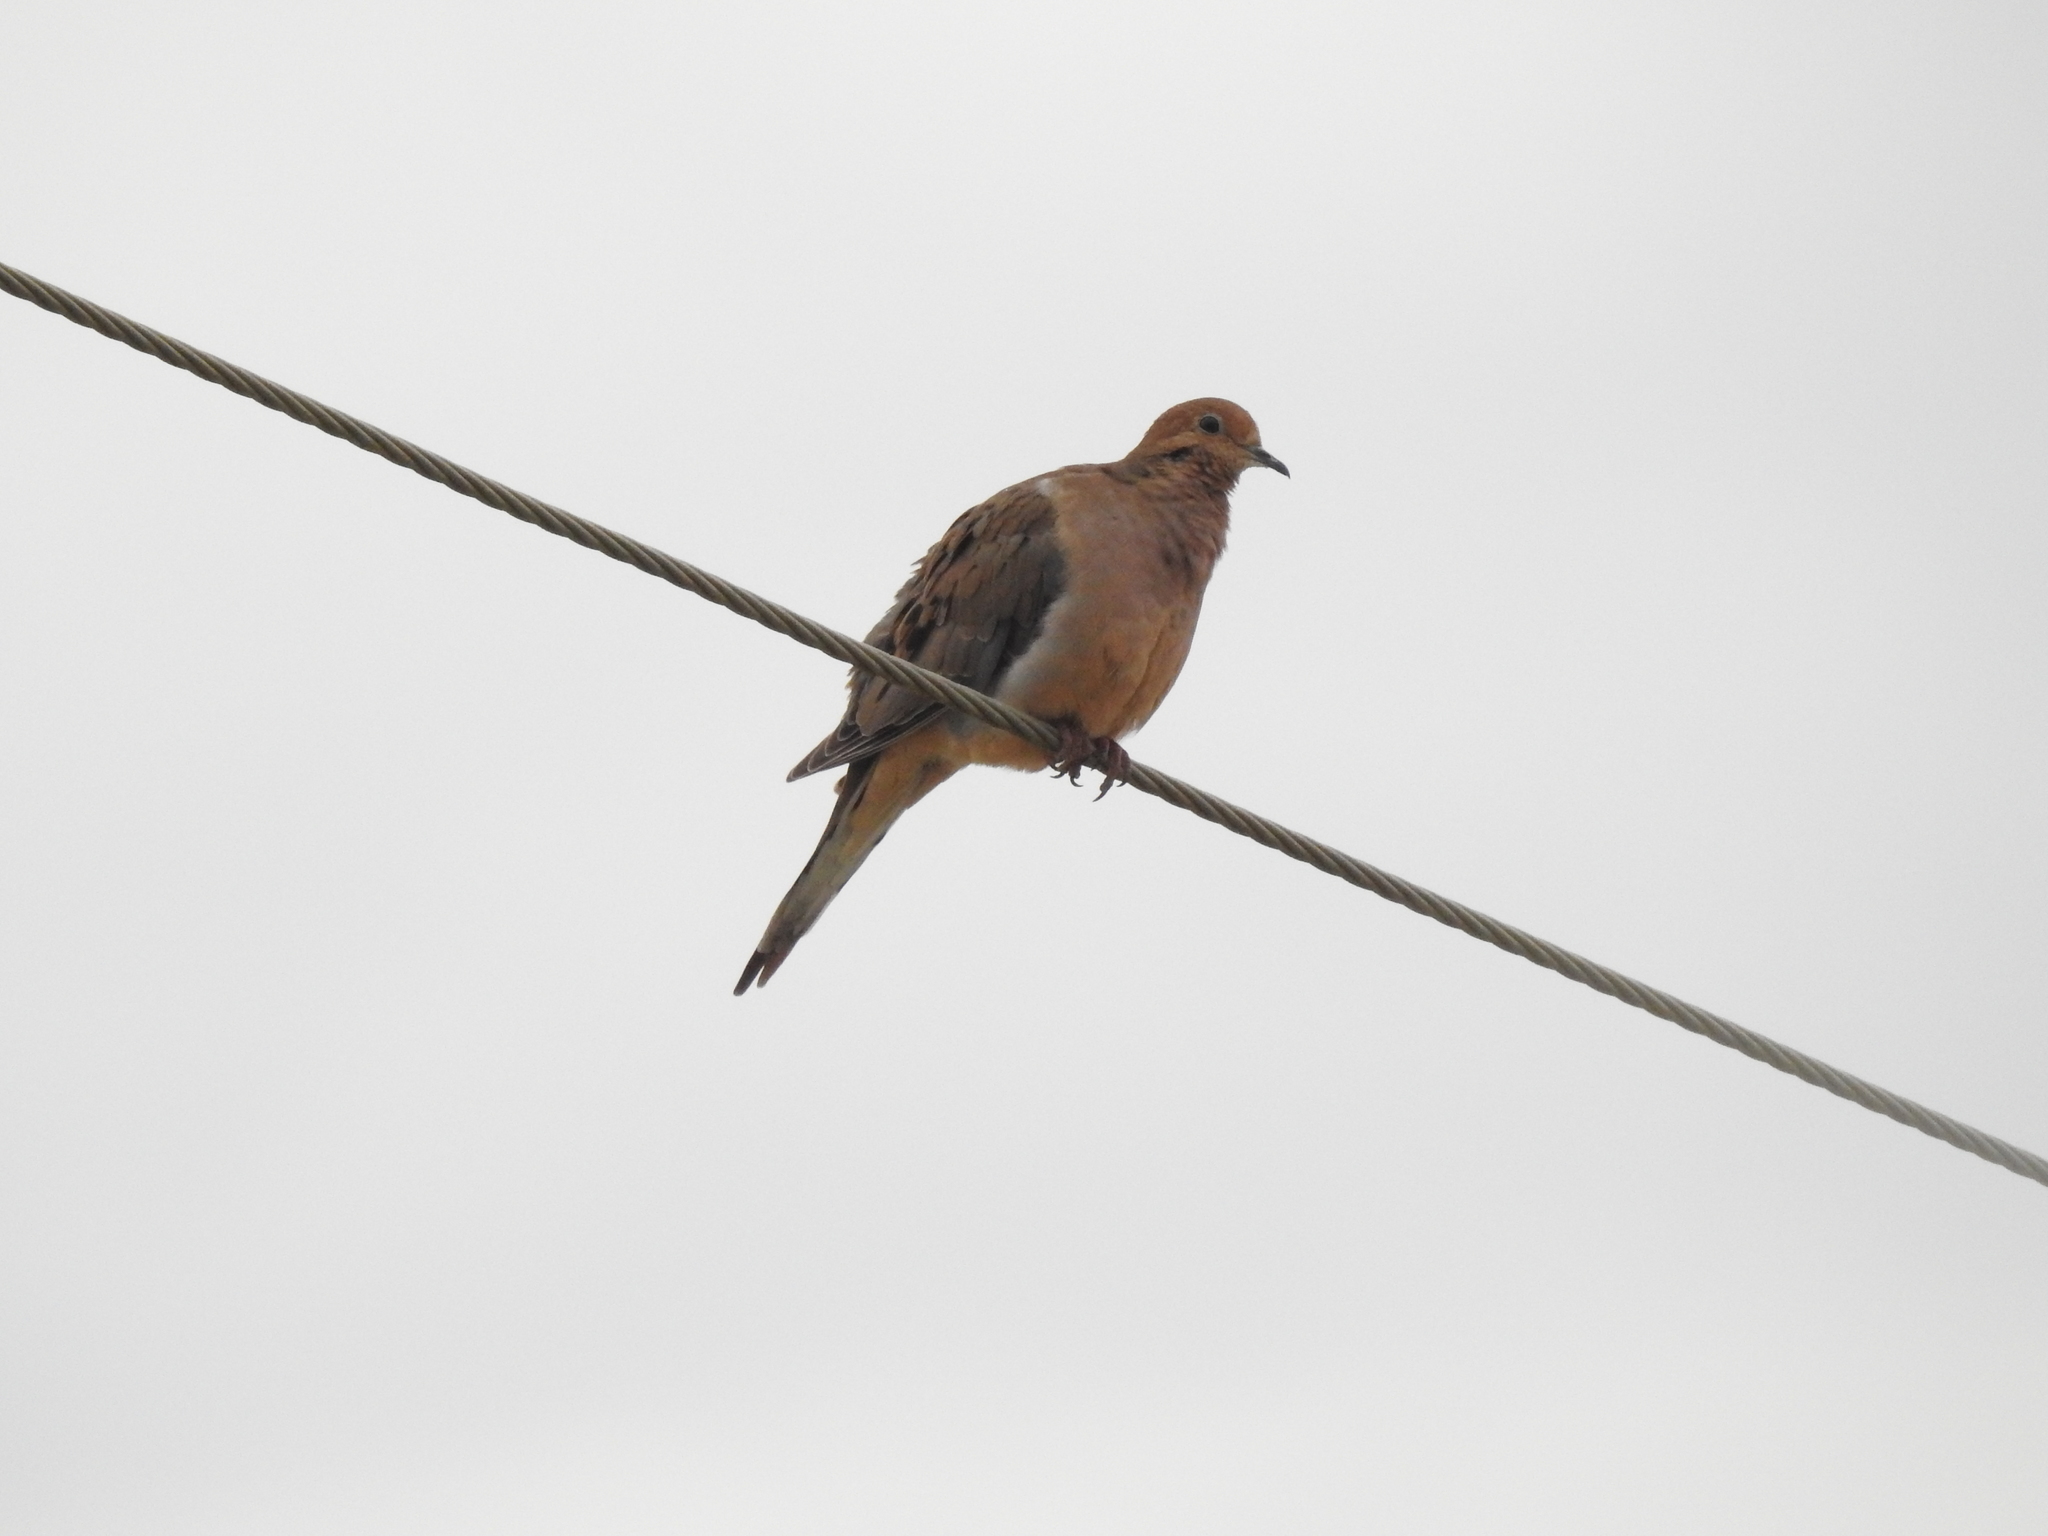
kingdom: Animalia
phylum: Chordata
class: Aves
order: Columbiformes
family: Columbidae
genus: Zenaida
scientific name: Zenaida macroura
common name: Mourning dove
